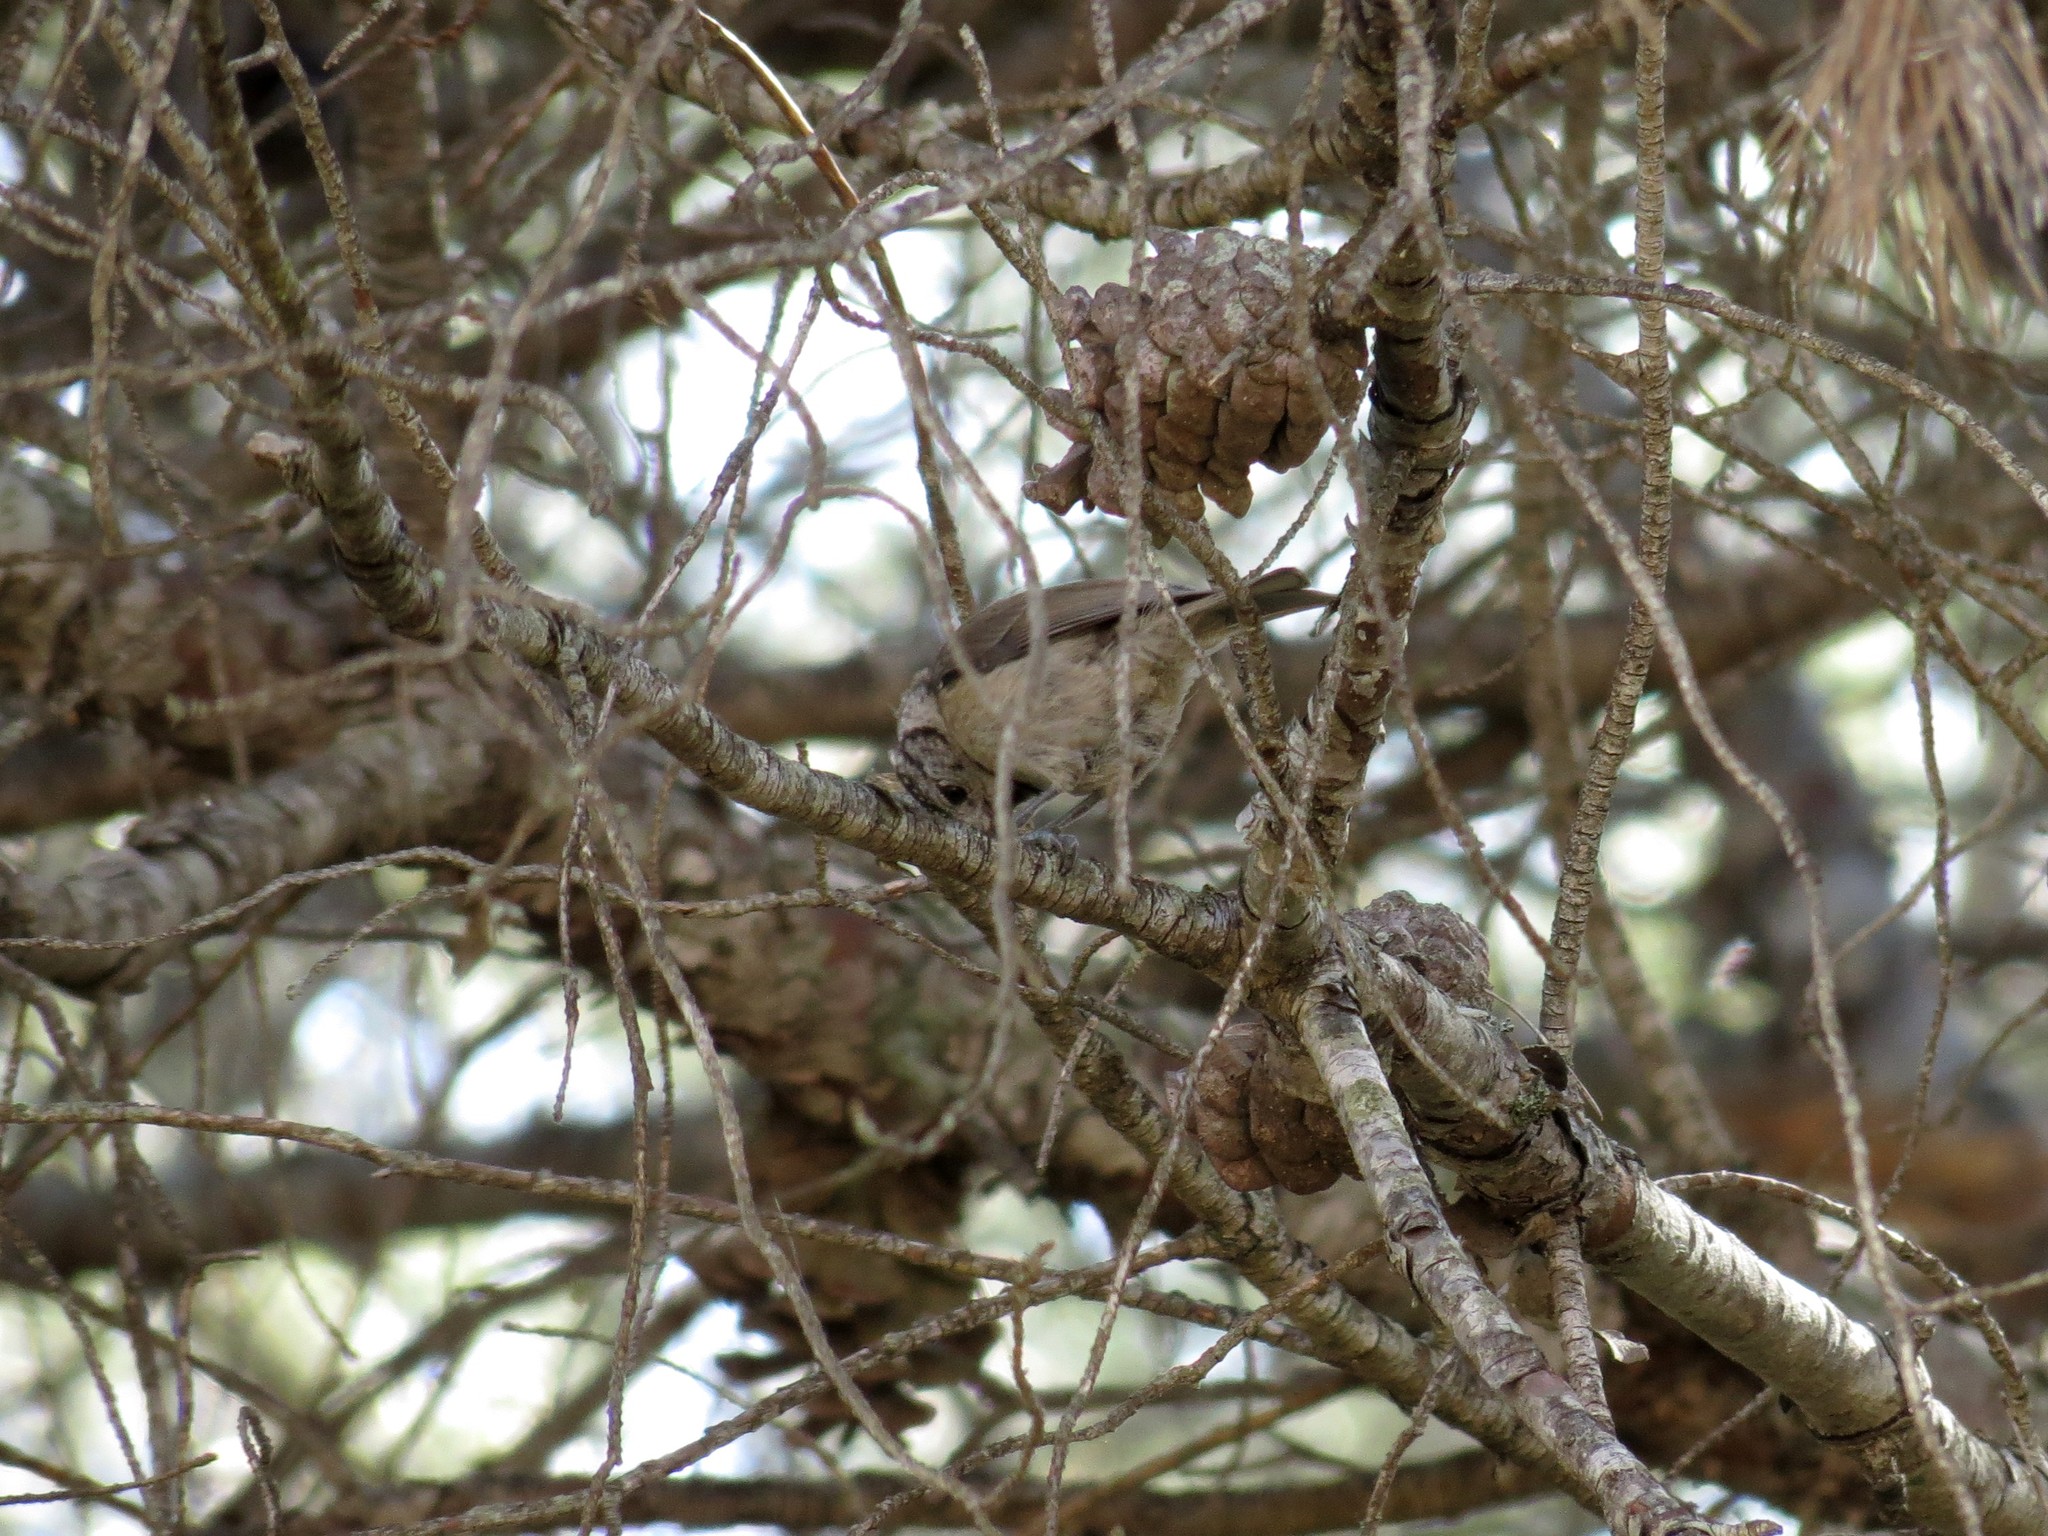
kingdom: Animalia
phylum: Chordata
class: Aves
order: Passeriformes
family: Paridae
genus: Lophophanes
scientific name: Lophophanes cristatus
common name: European crested tit
